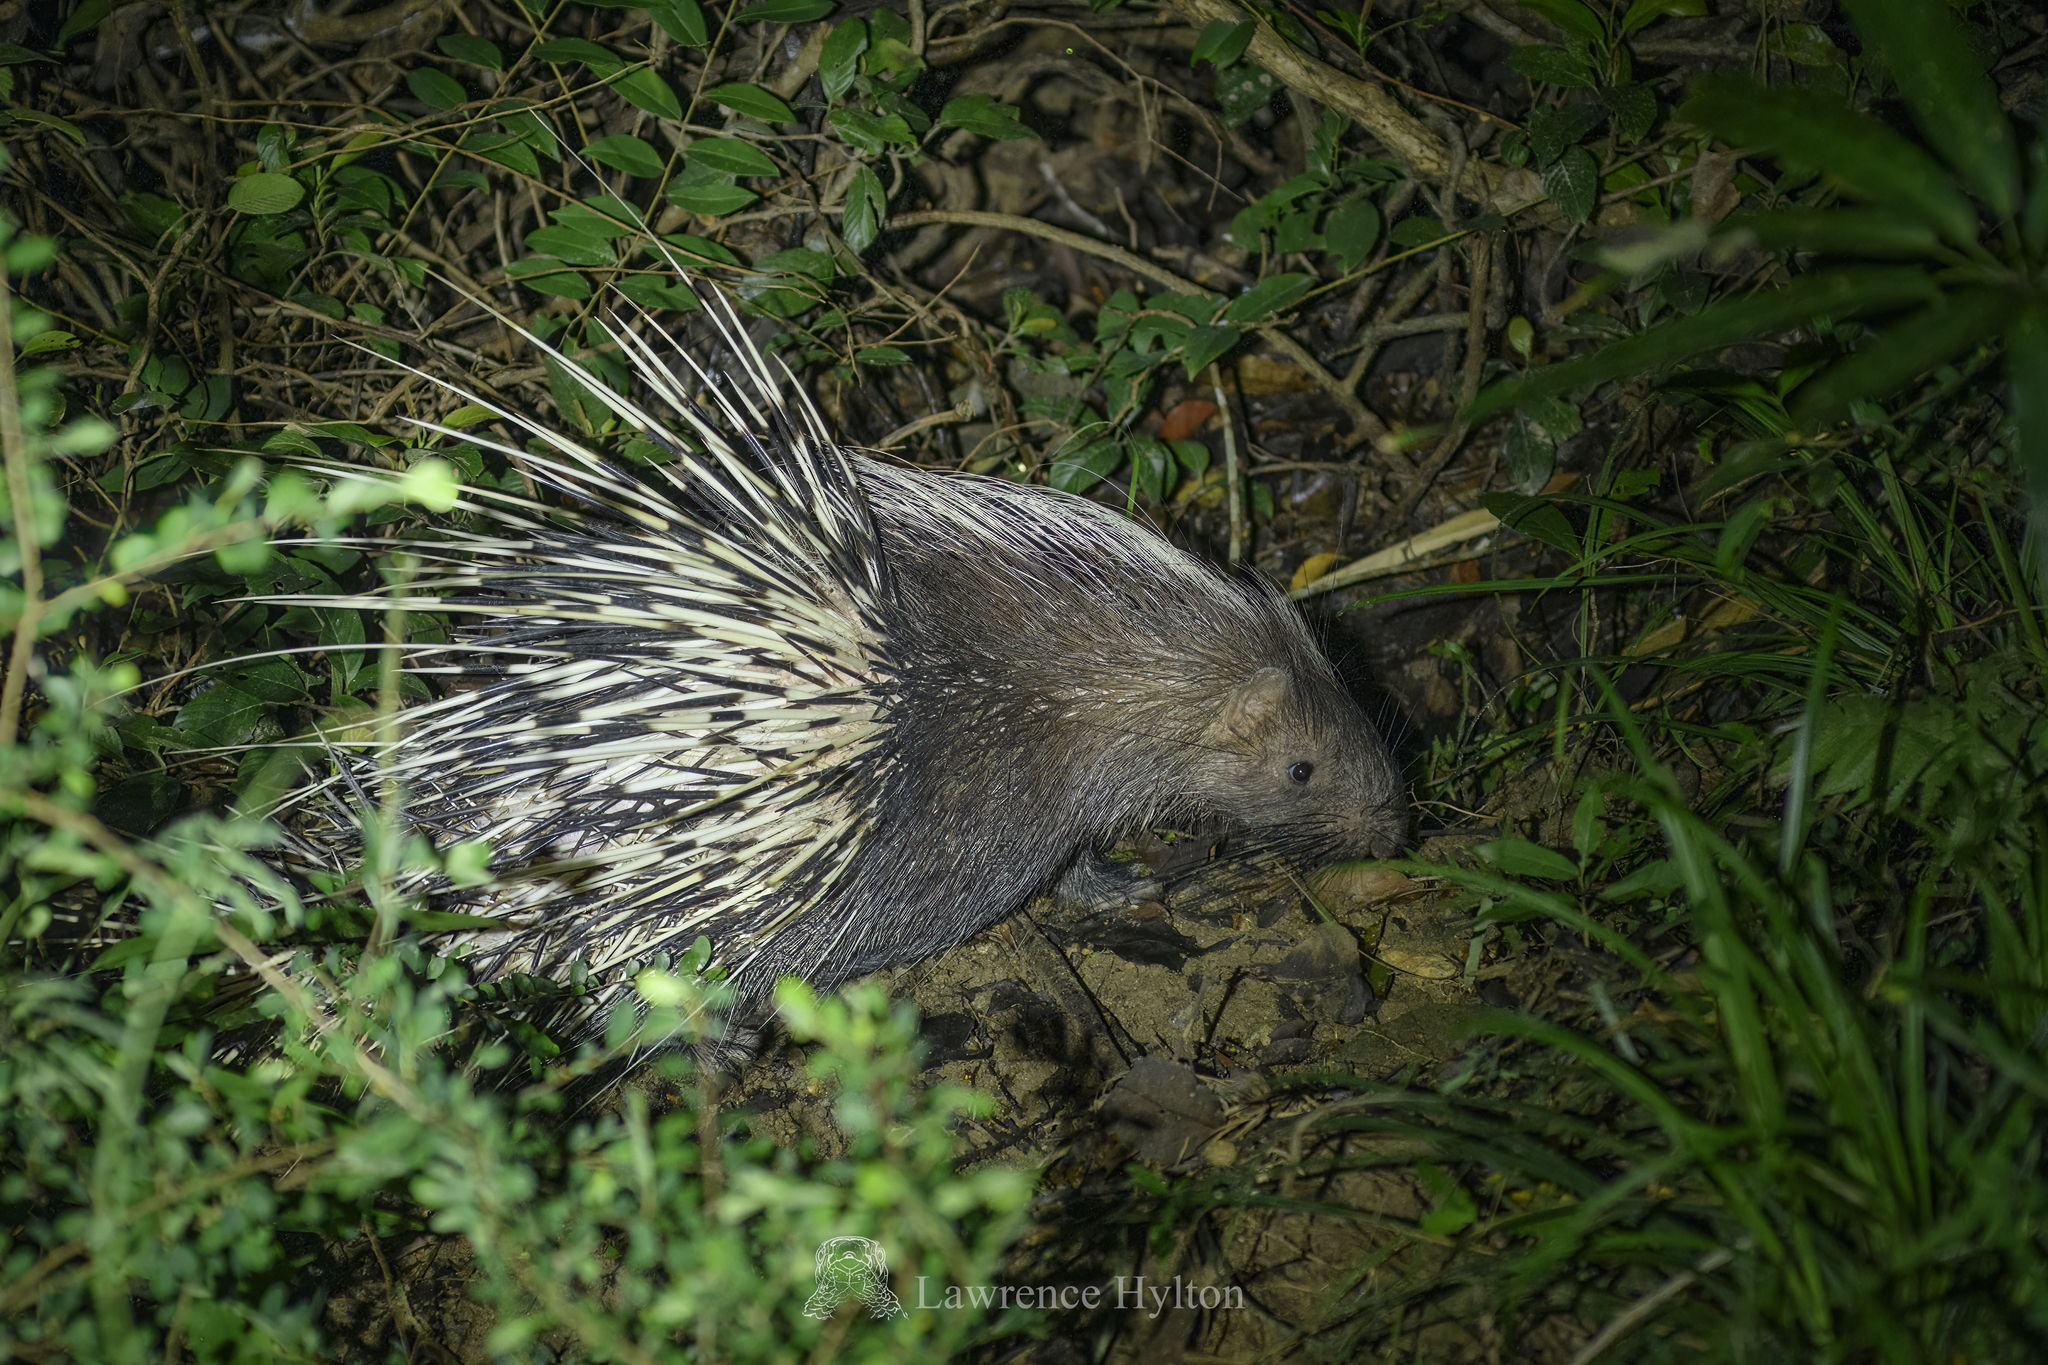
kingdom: Animalia
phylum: Chordata
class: Mammalia
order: Rodentia
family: Hystricidae
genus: Hystrix
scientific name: Hystrix brachyura
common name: Malayan porcupine
